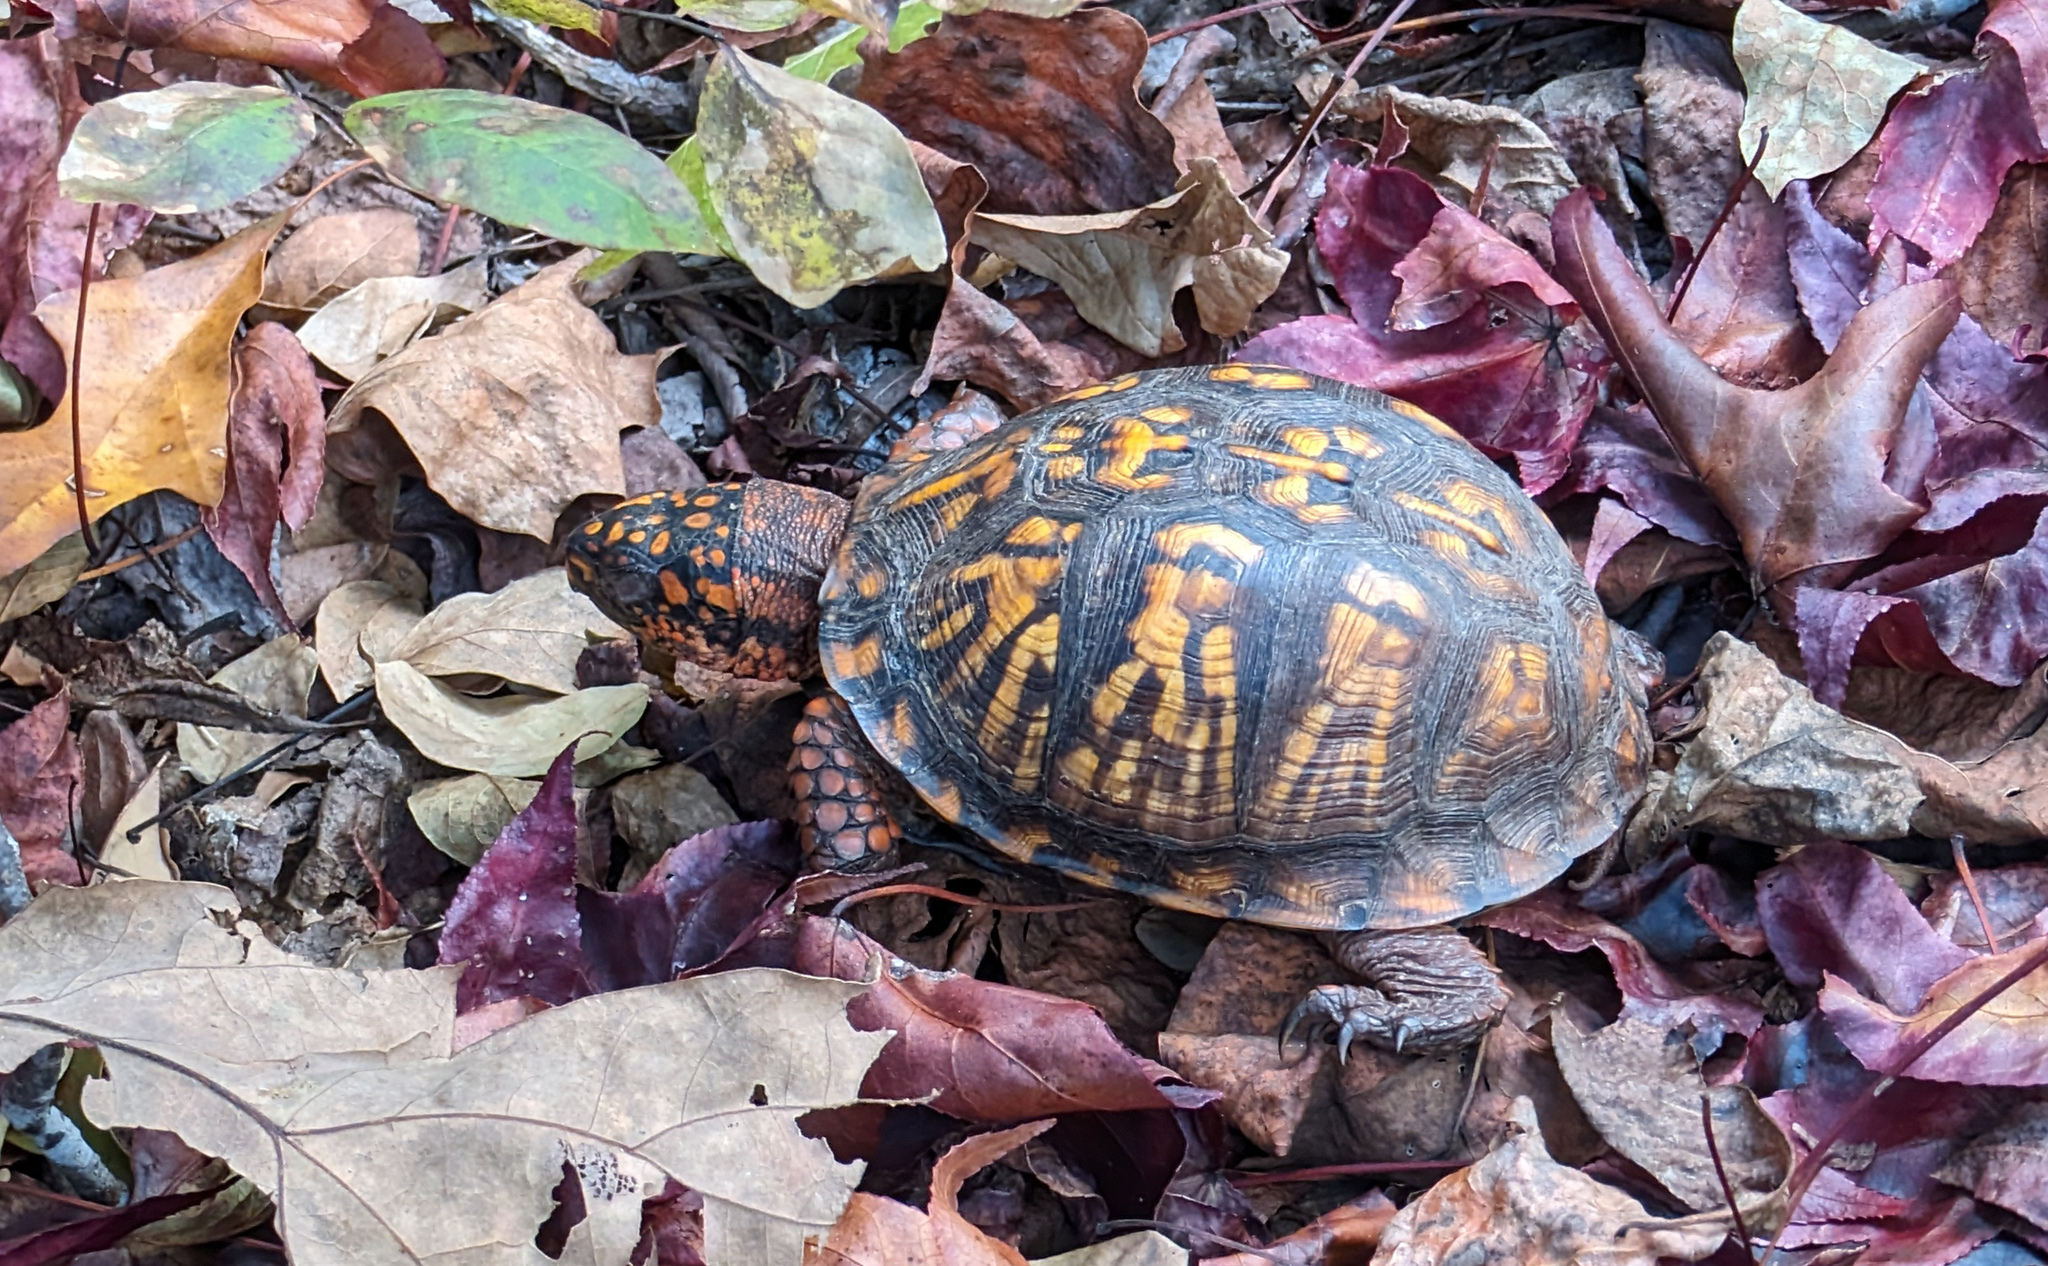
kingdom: Animalia
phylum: Chordata
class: Testudines
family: Emydidae
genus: Terrapene
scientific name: Terrapene carolina
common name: Common box turtle
